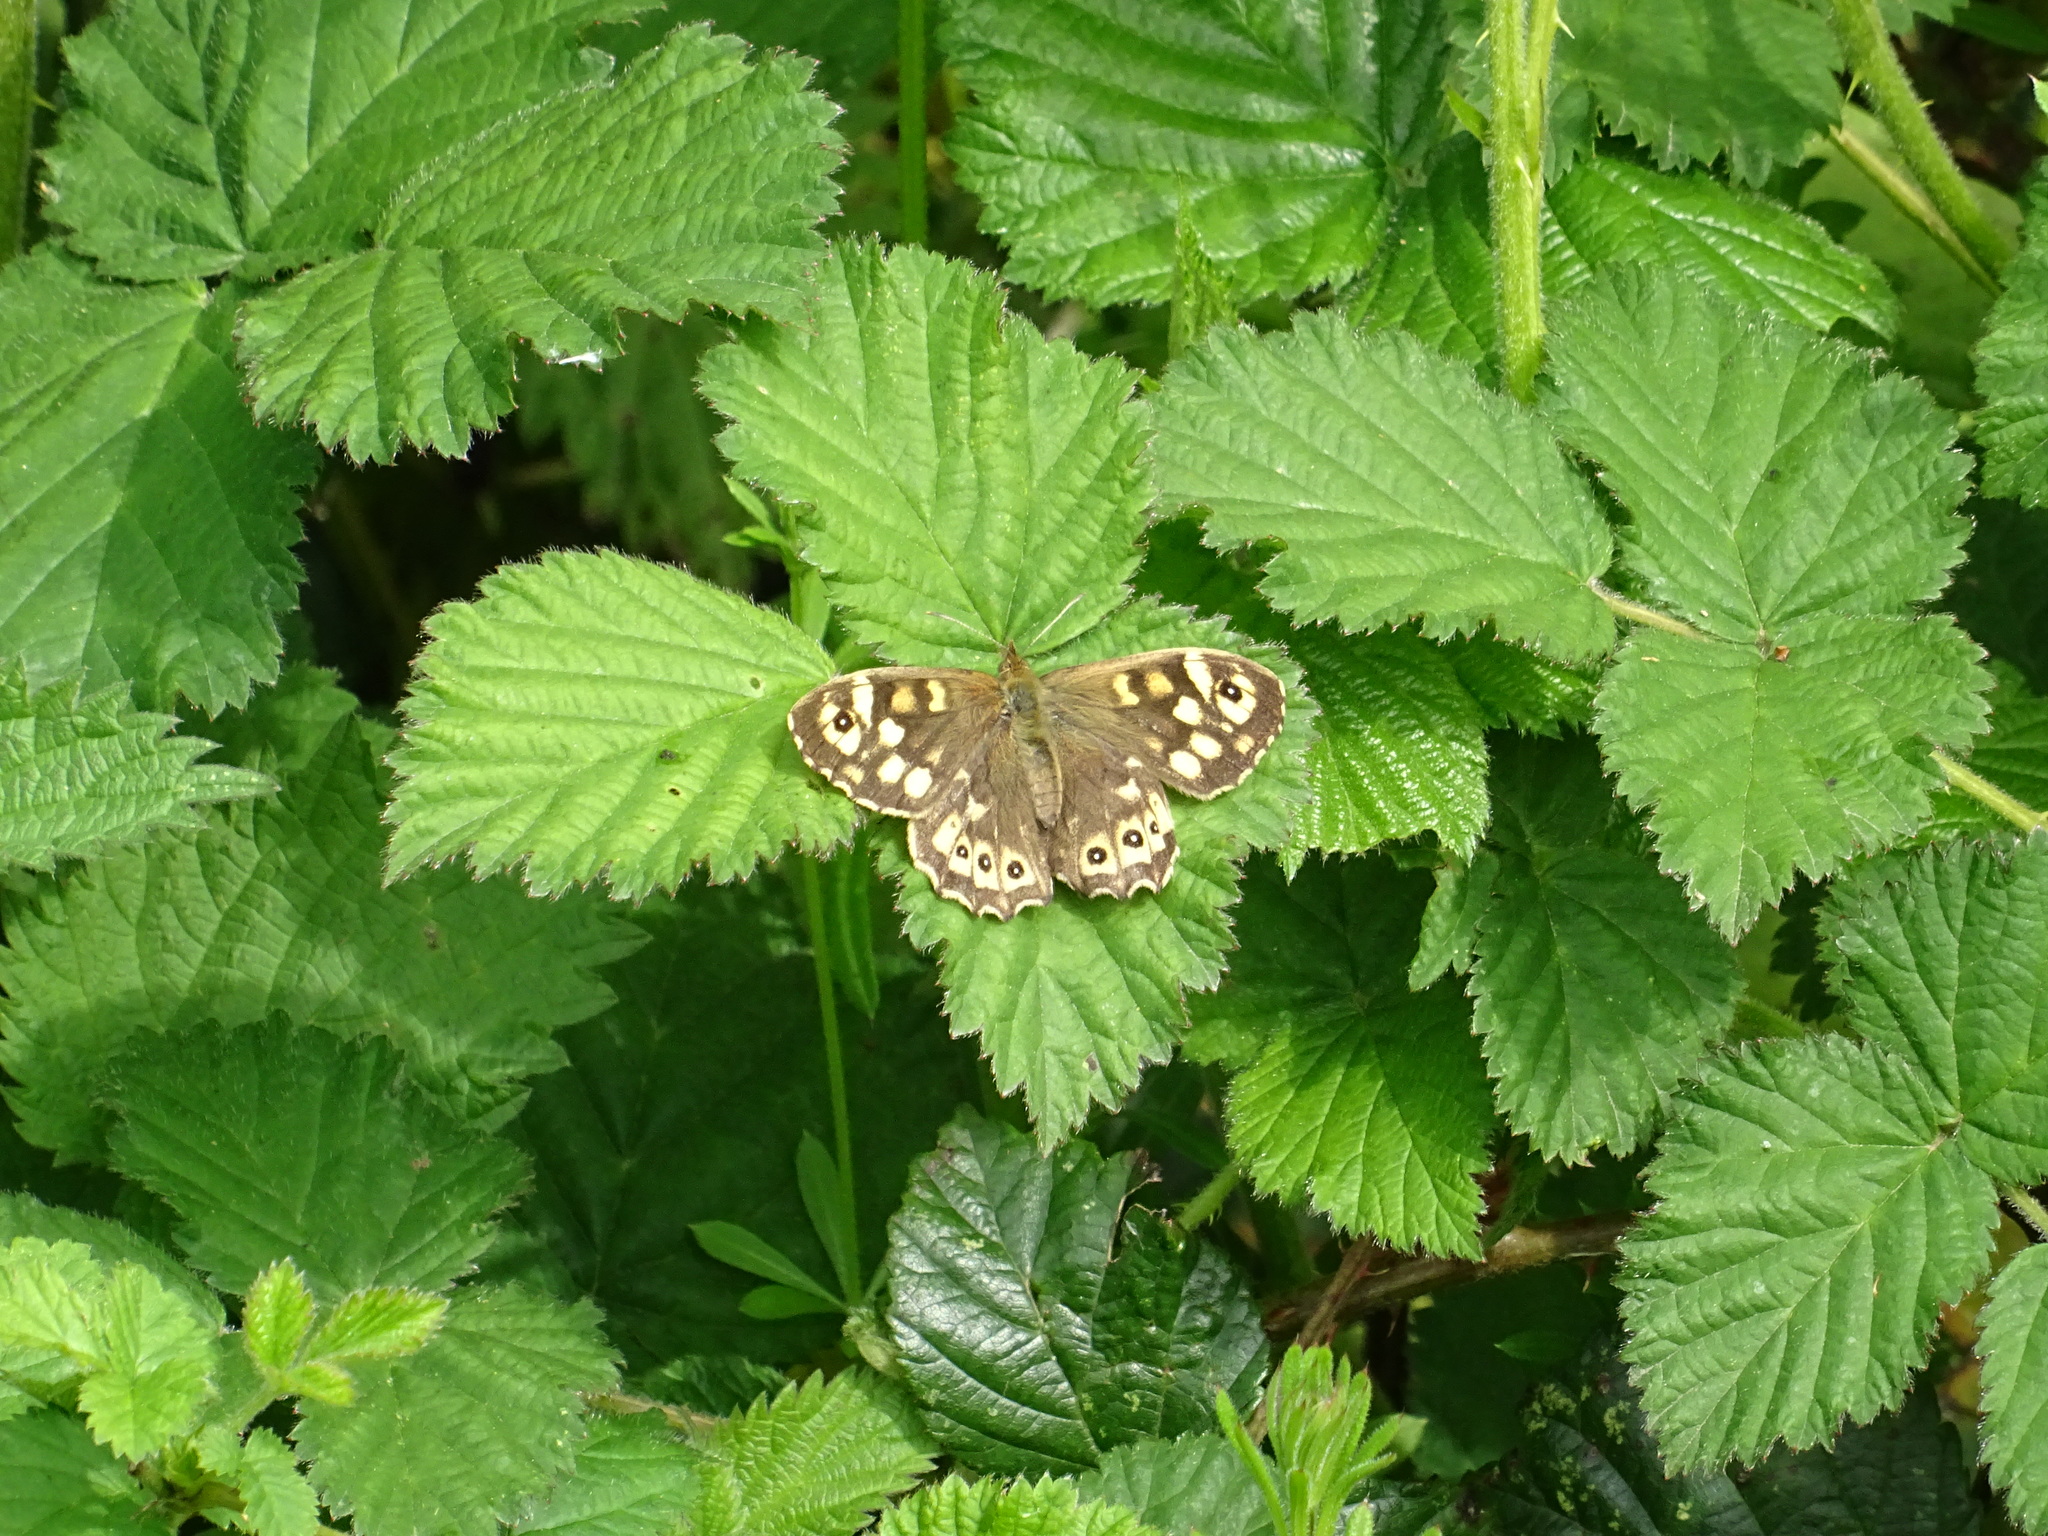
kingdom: Animalia
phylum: Arthropoda
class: Insecta
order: Lepidoptera
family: Nymphalidae
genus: Pararge
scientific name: Pararge aegeria
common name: Speckled wood
